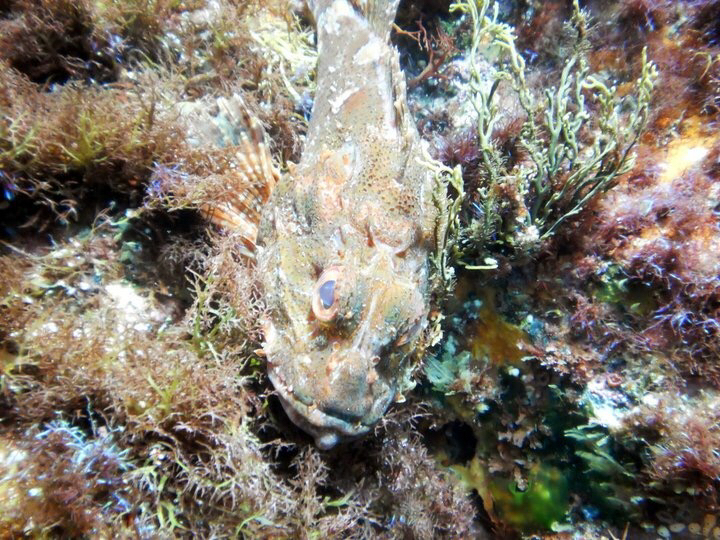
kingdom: Animalia
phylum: Chordata
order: Scorpaeniformes
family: Scorpaenidae
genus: Scorpaena
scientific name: Scorpaena cardinalis
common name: Cardinal scorpionfish
